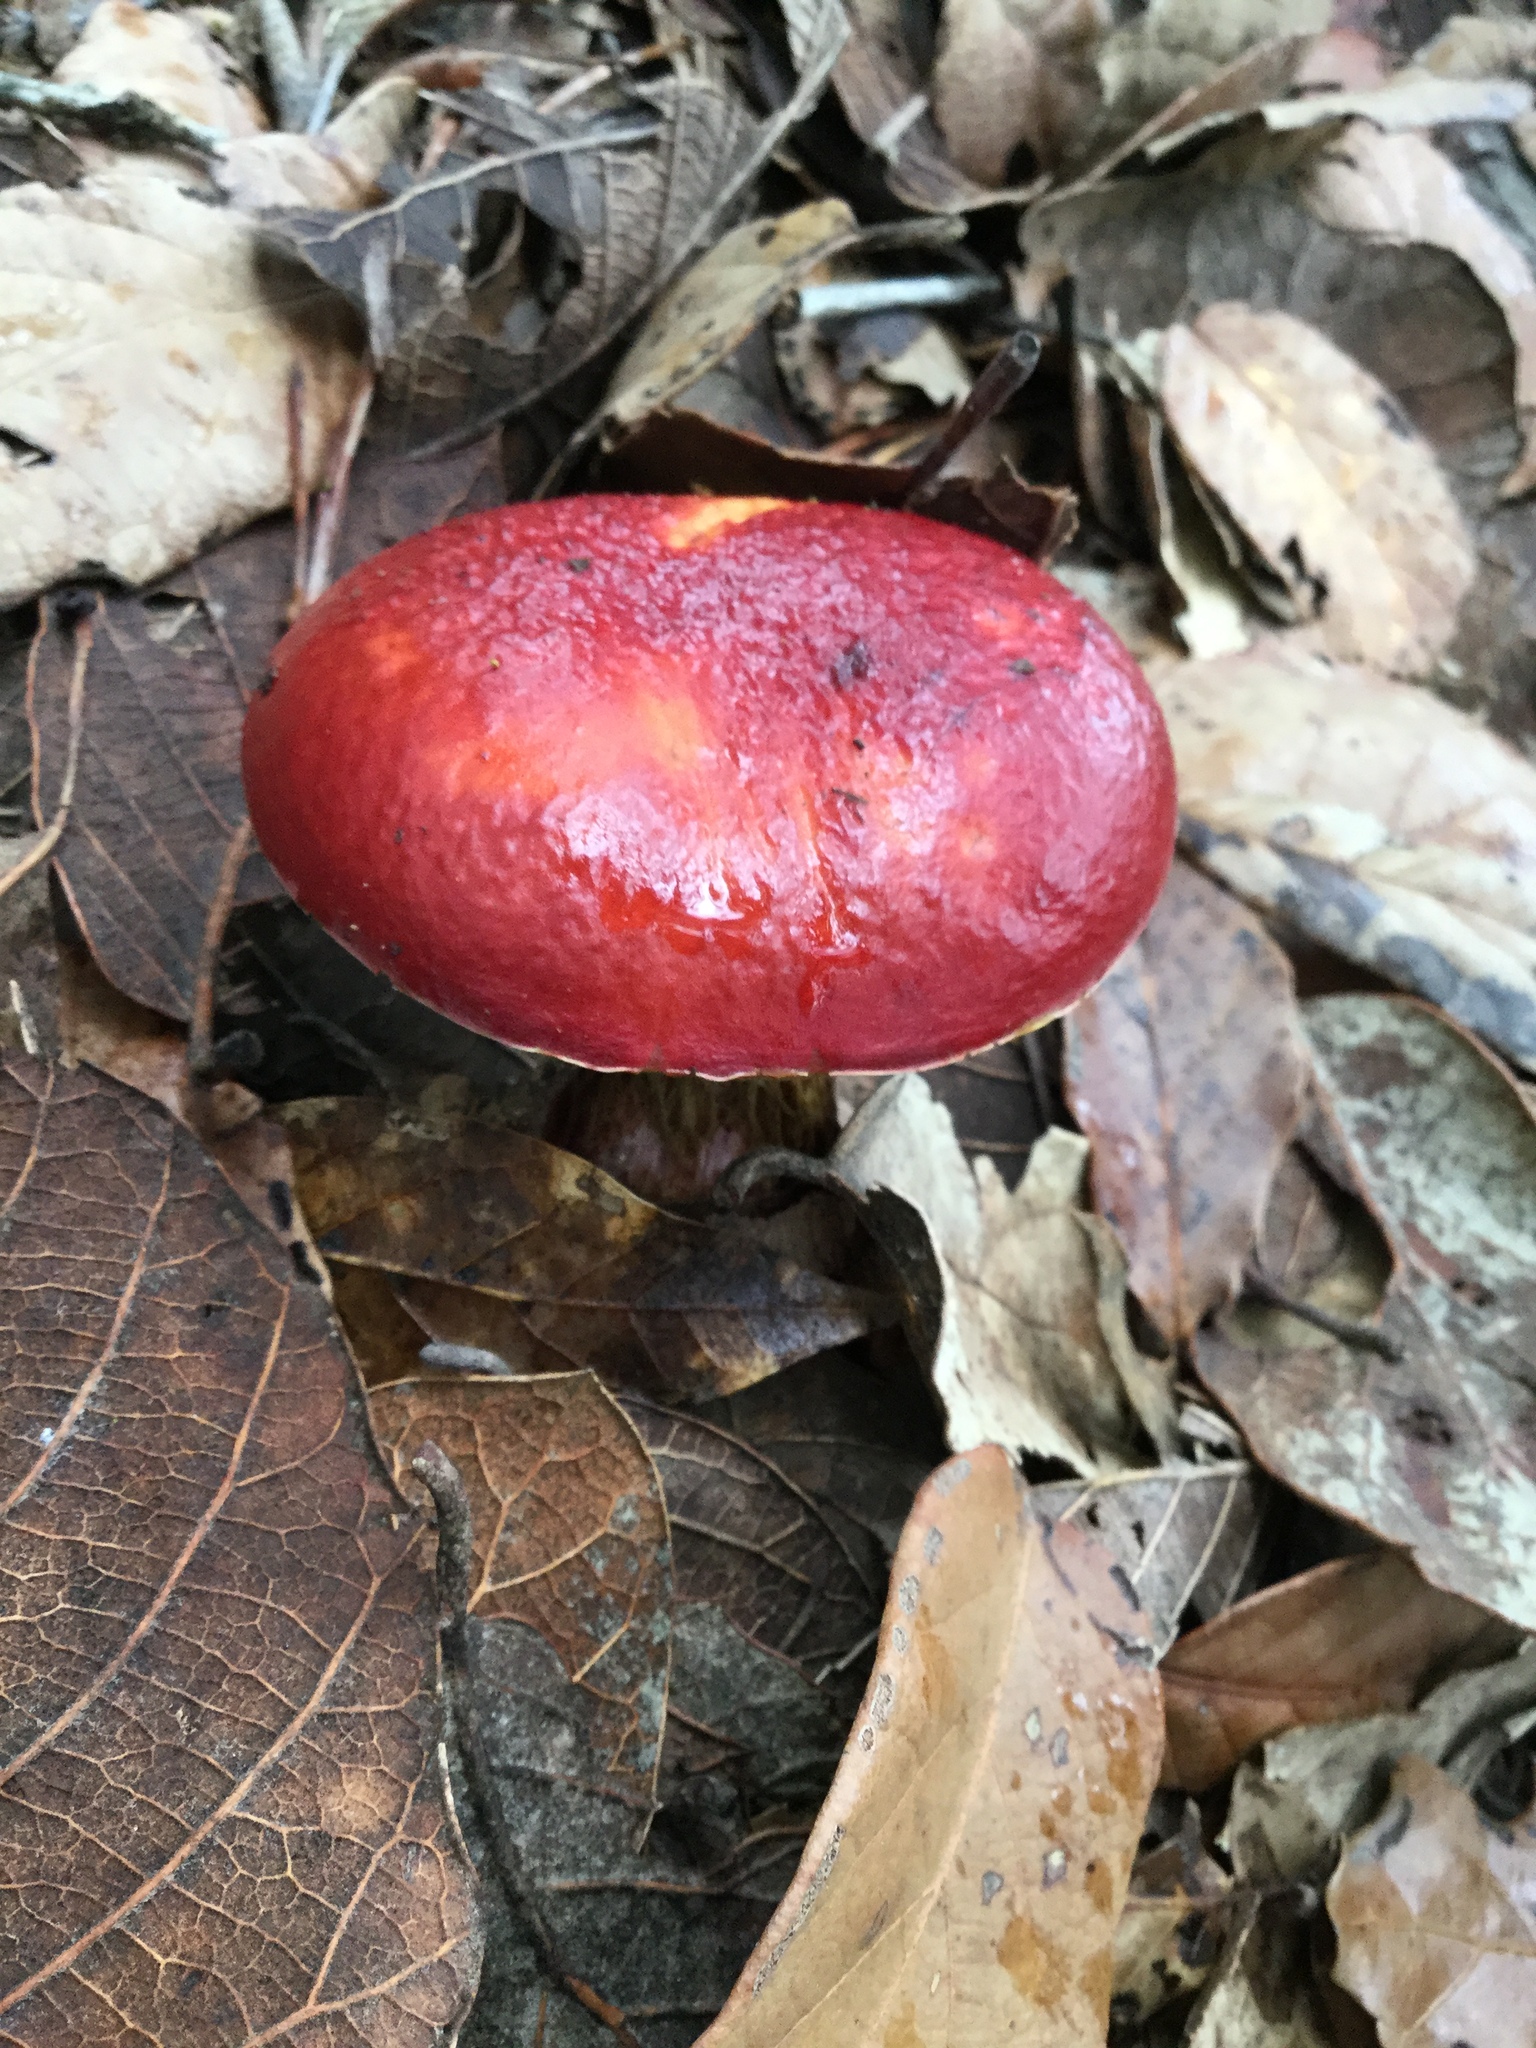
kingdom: Fungi
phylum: Basidiomycota
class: Agaricomycetes
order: Boletales
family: Boletaceae
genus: Butyriboletus
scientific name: Butyriboletus frostii
